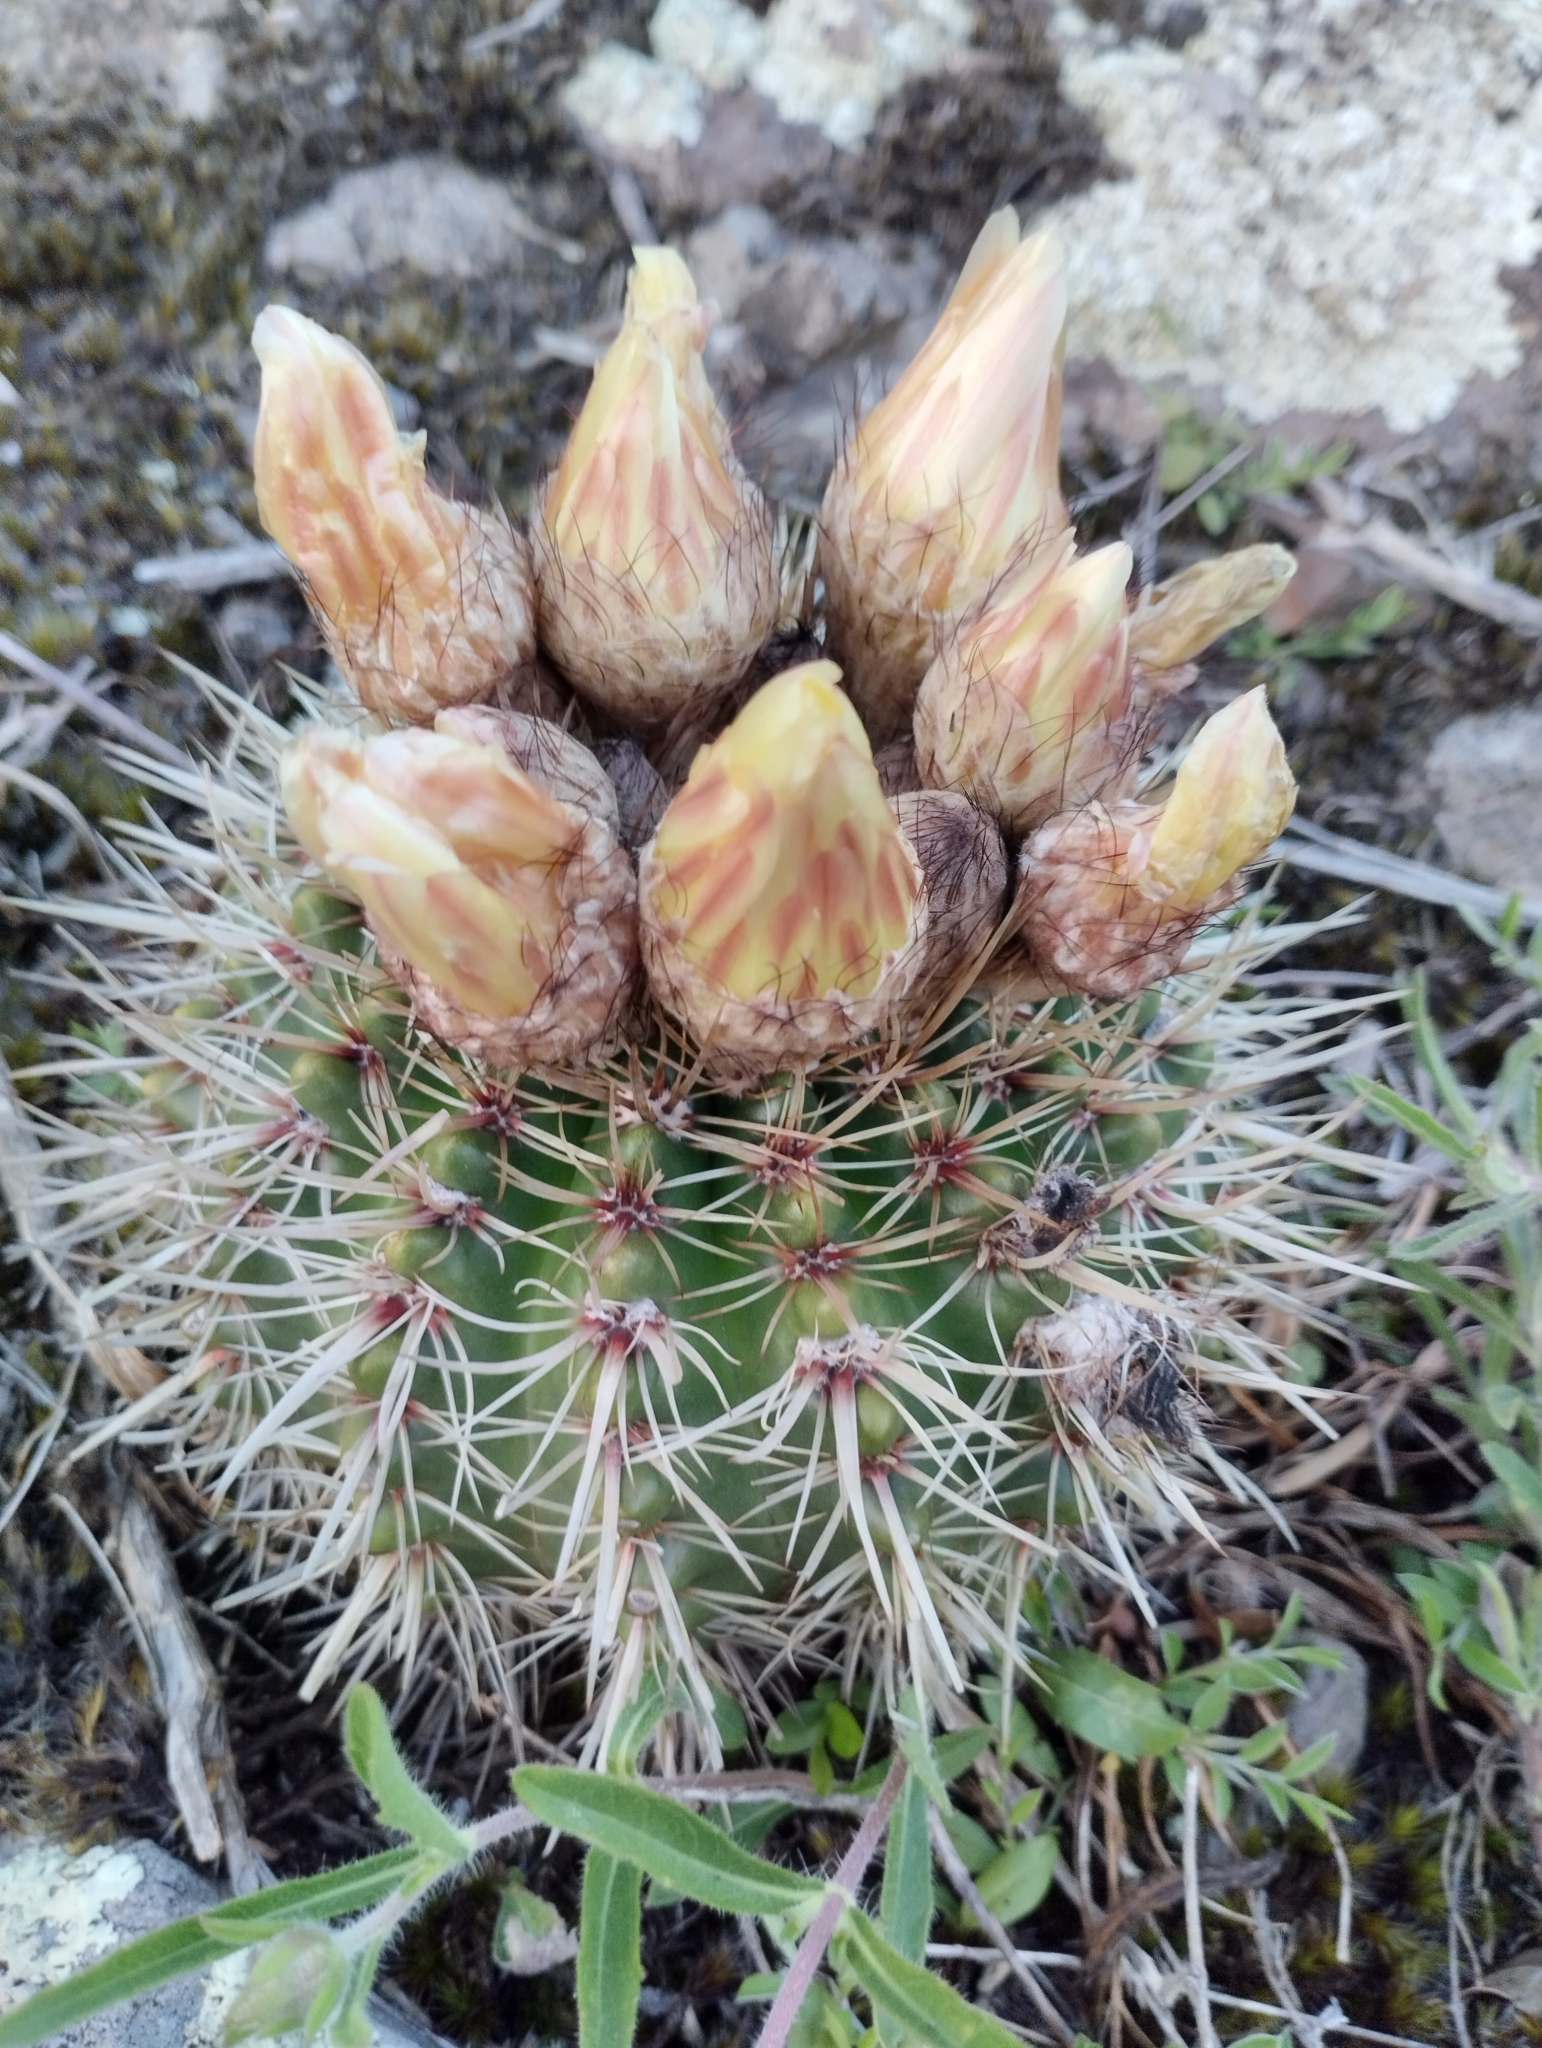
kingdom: Plantae
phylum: Tracheophyta
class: Magnoliopsida
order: Caryophyllales
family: Cactaceae
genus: Parodia
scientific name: Parodia mammulosa
